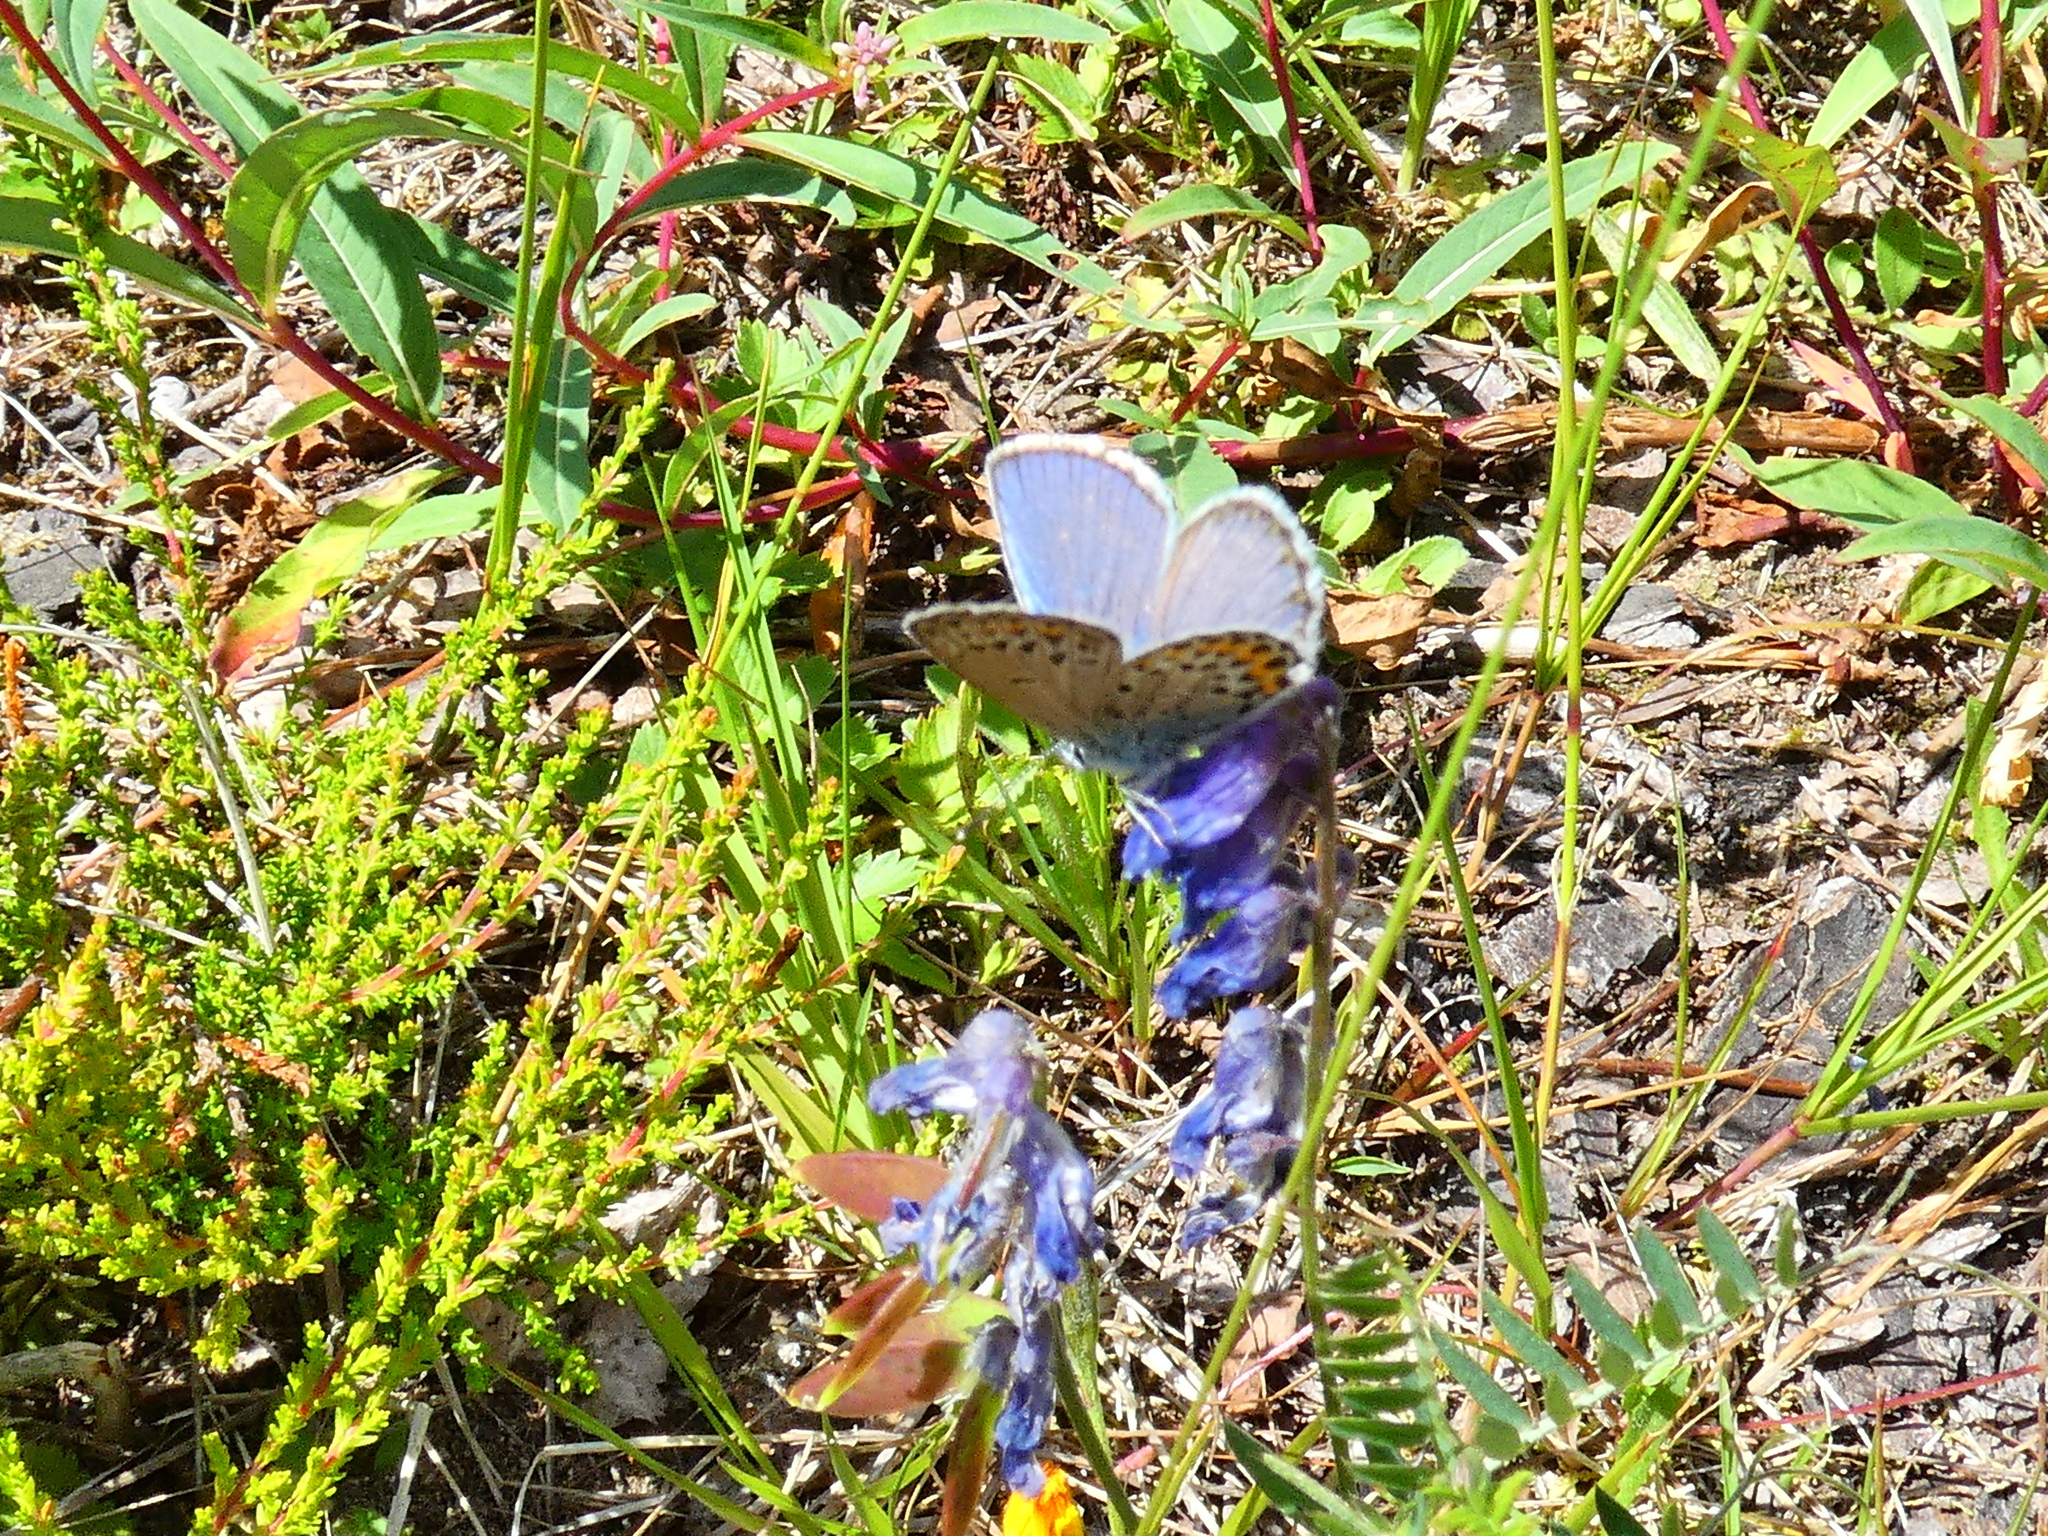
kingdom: Animalia
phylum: Arthropoda
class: Insecta
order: Lepidoptera
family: Lycaenidae
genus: Lycaeides
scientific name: Lycaeides idas
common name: Northern blue
